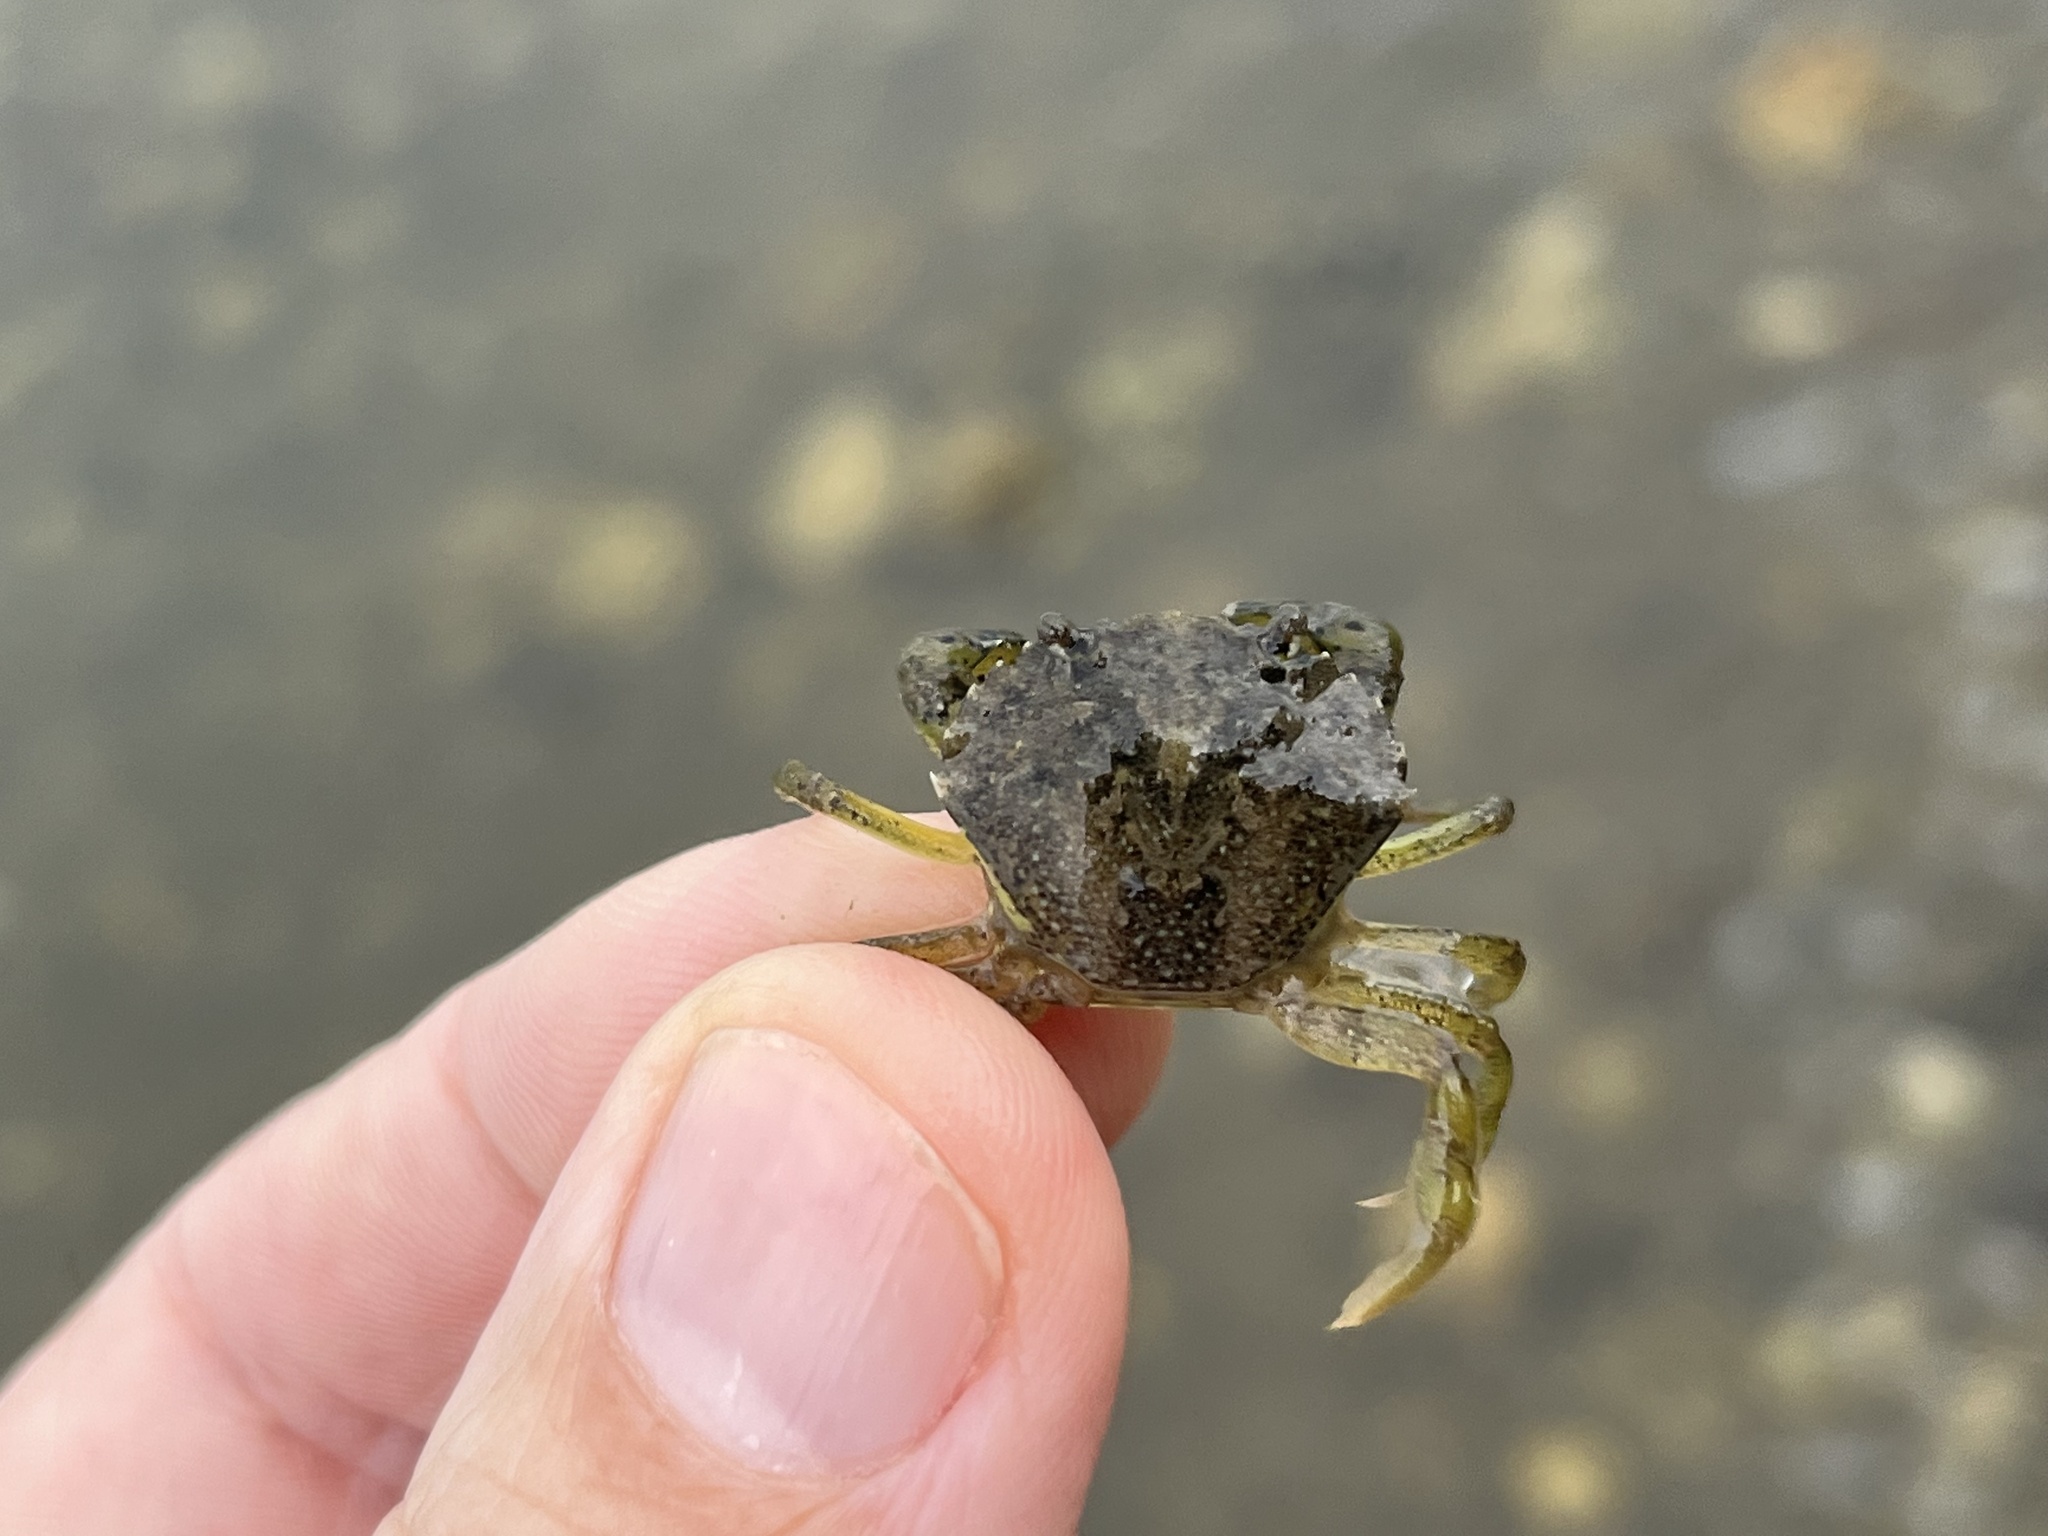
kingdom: Animalia
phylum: Arthropoda
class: Malacostraca
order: Decapoda
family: Carcinidae
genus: Carcinus
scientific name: Carcinus maenas
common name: European green crab
